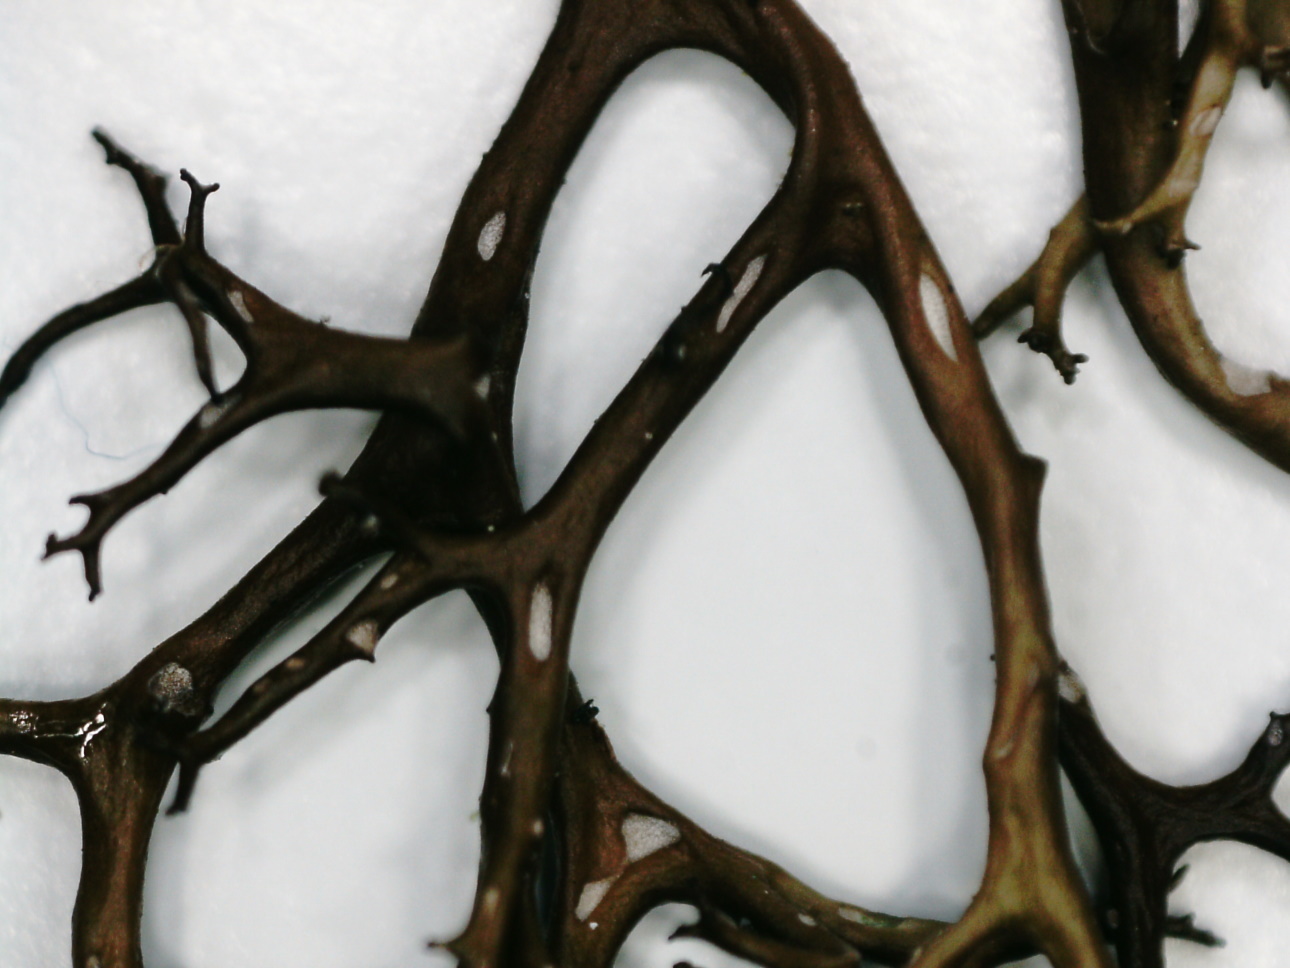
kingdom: Fungi
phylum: Ascomycota
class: Lecanoromycetes
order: Lecanorales
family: Parmeliaceae
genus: Cetraria
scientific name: Cetraria aculeata
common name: Spiny heath lichen
